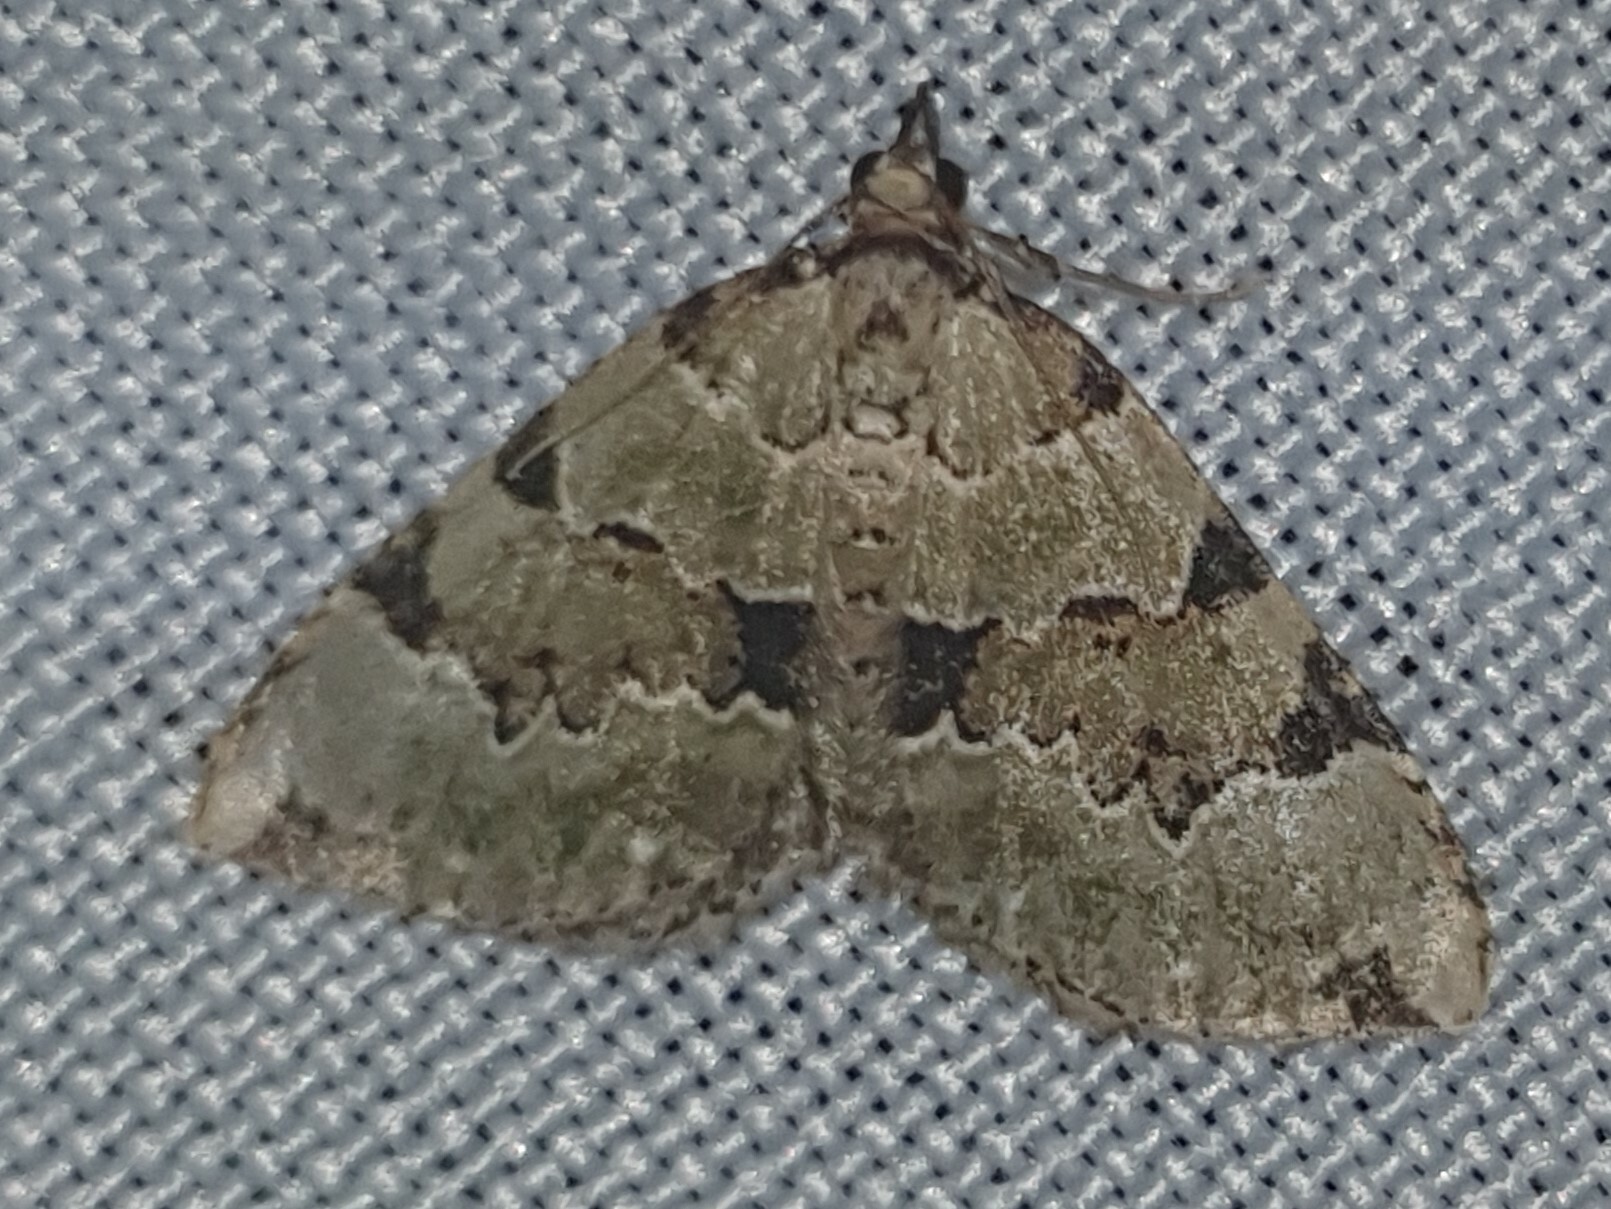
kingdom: Animalia
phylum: Arthropoda
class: Insecta
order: Lepidoptera
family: Geometridae
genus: Colostygia
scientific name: Colostygia pectinataria
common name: Green carpet
